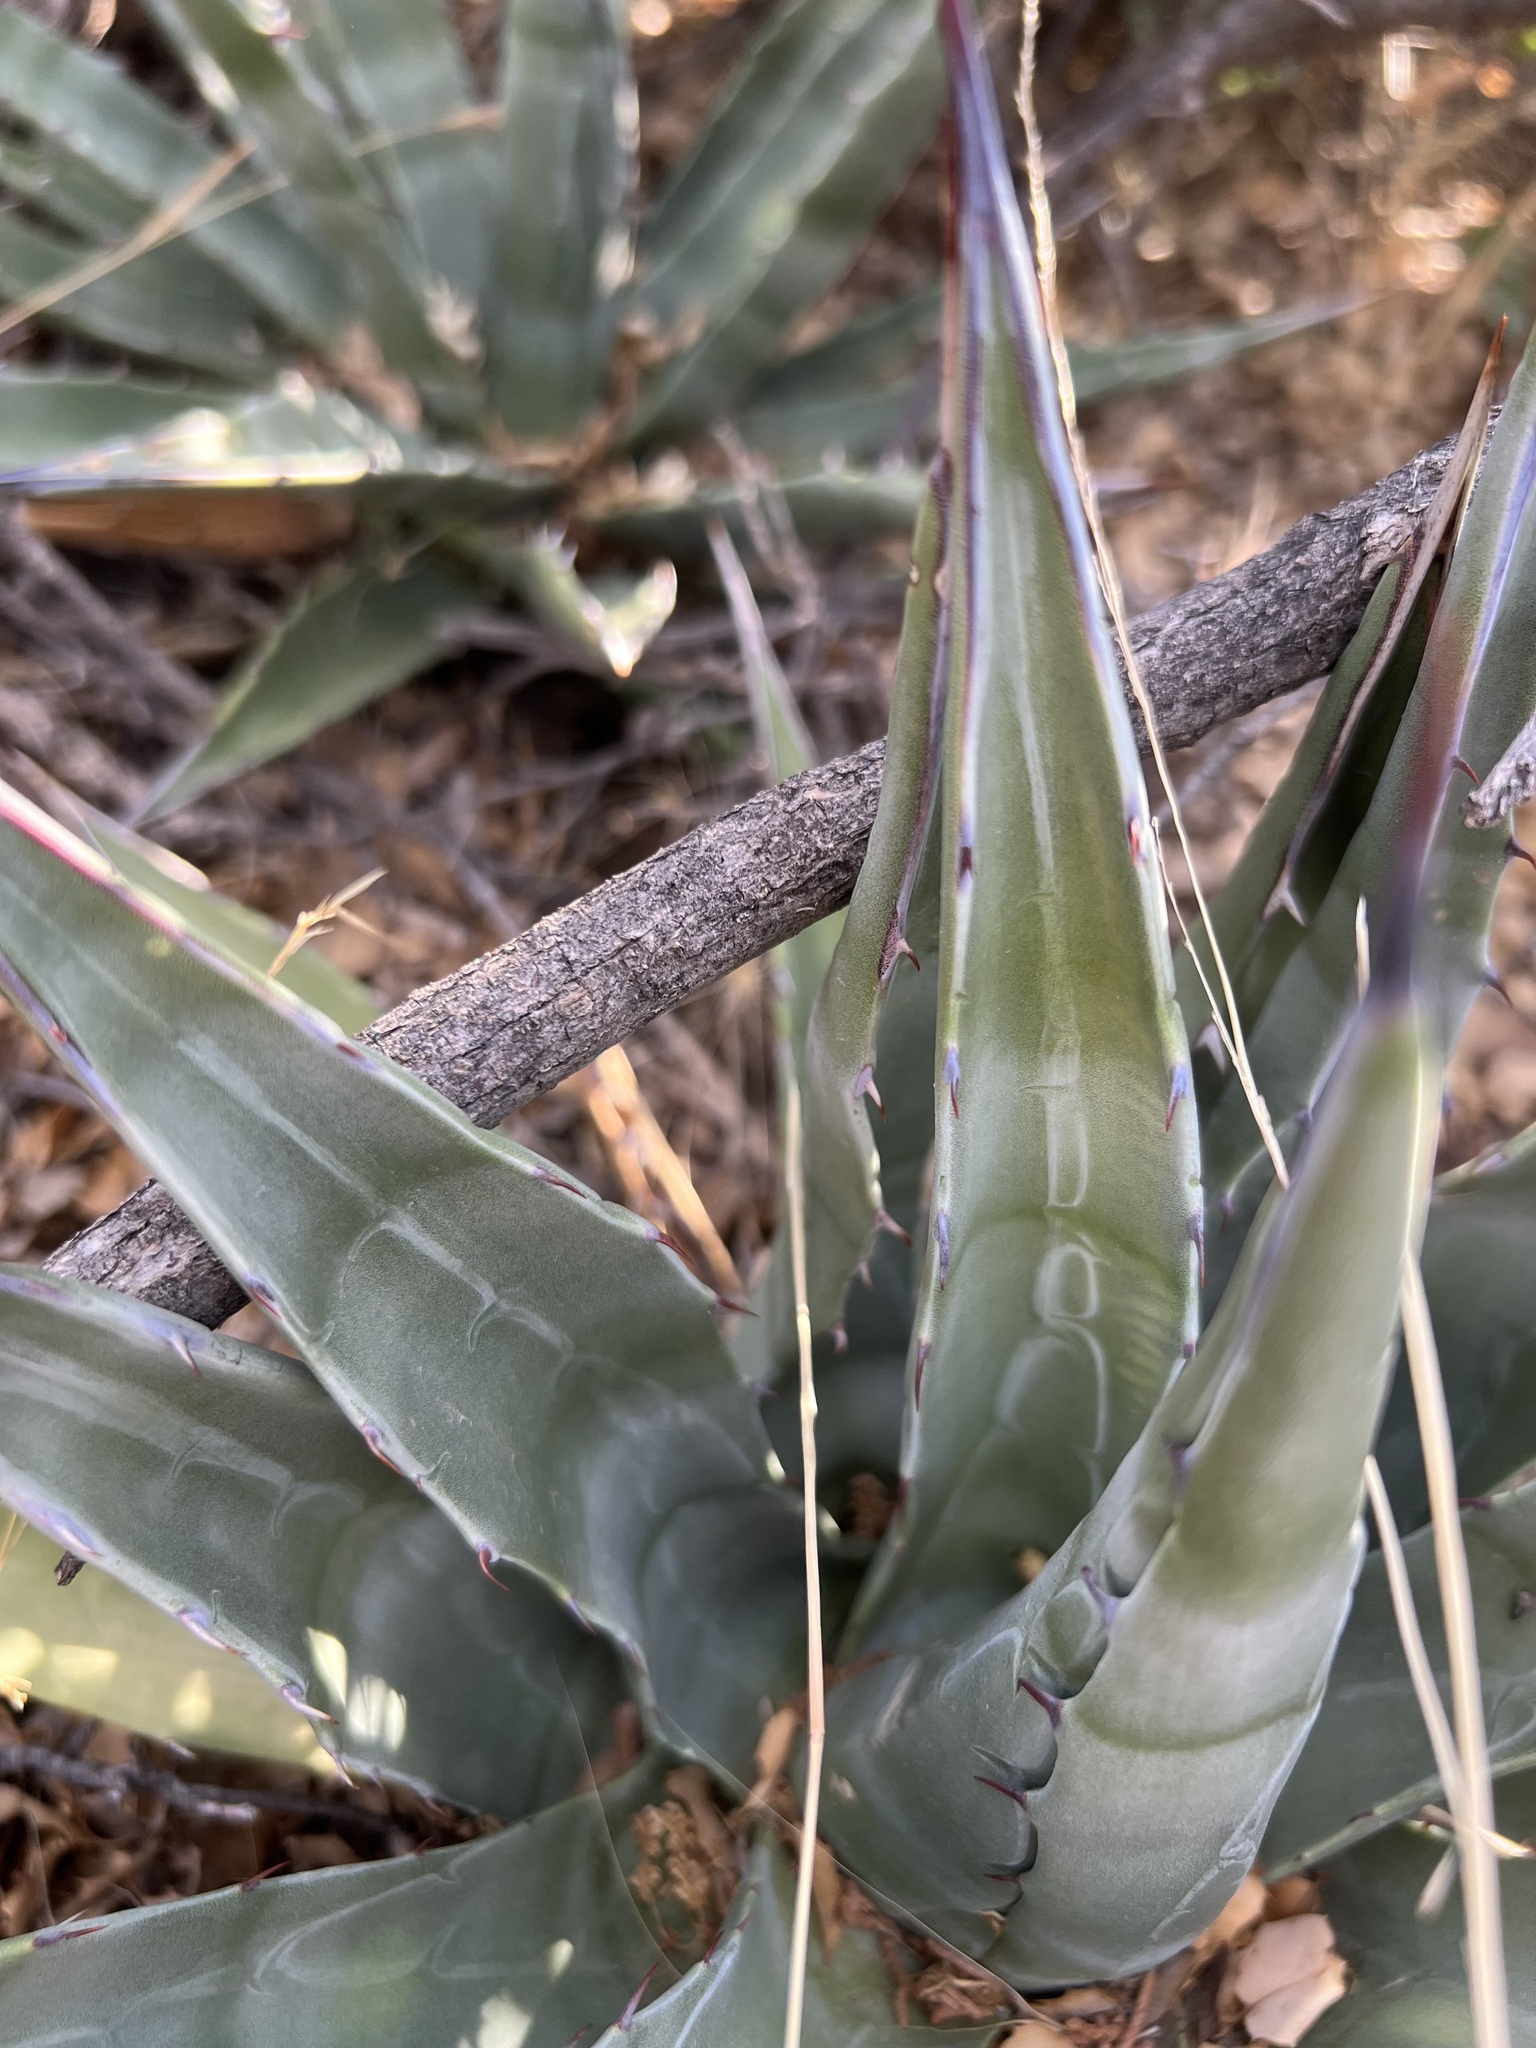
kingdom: Plantae
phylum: Tracheophyta
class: Liliopsida
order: Asparagales
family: Asparagaceae
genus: Agave
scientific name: Agave mckelveyana
